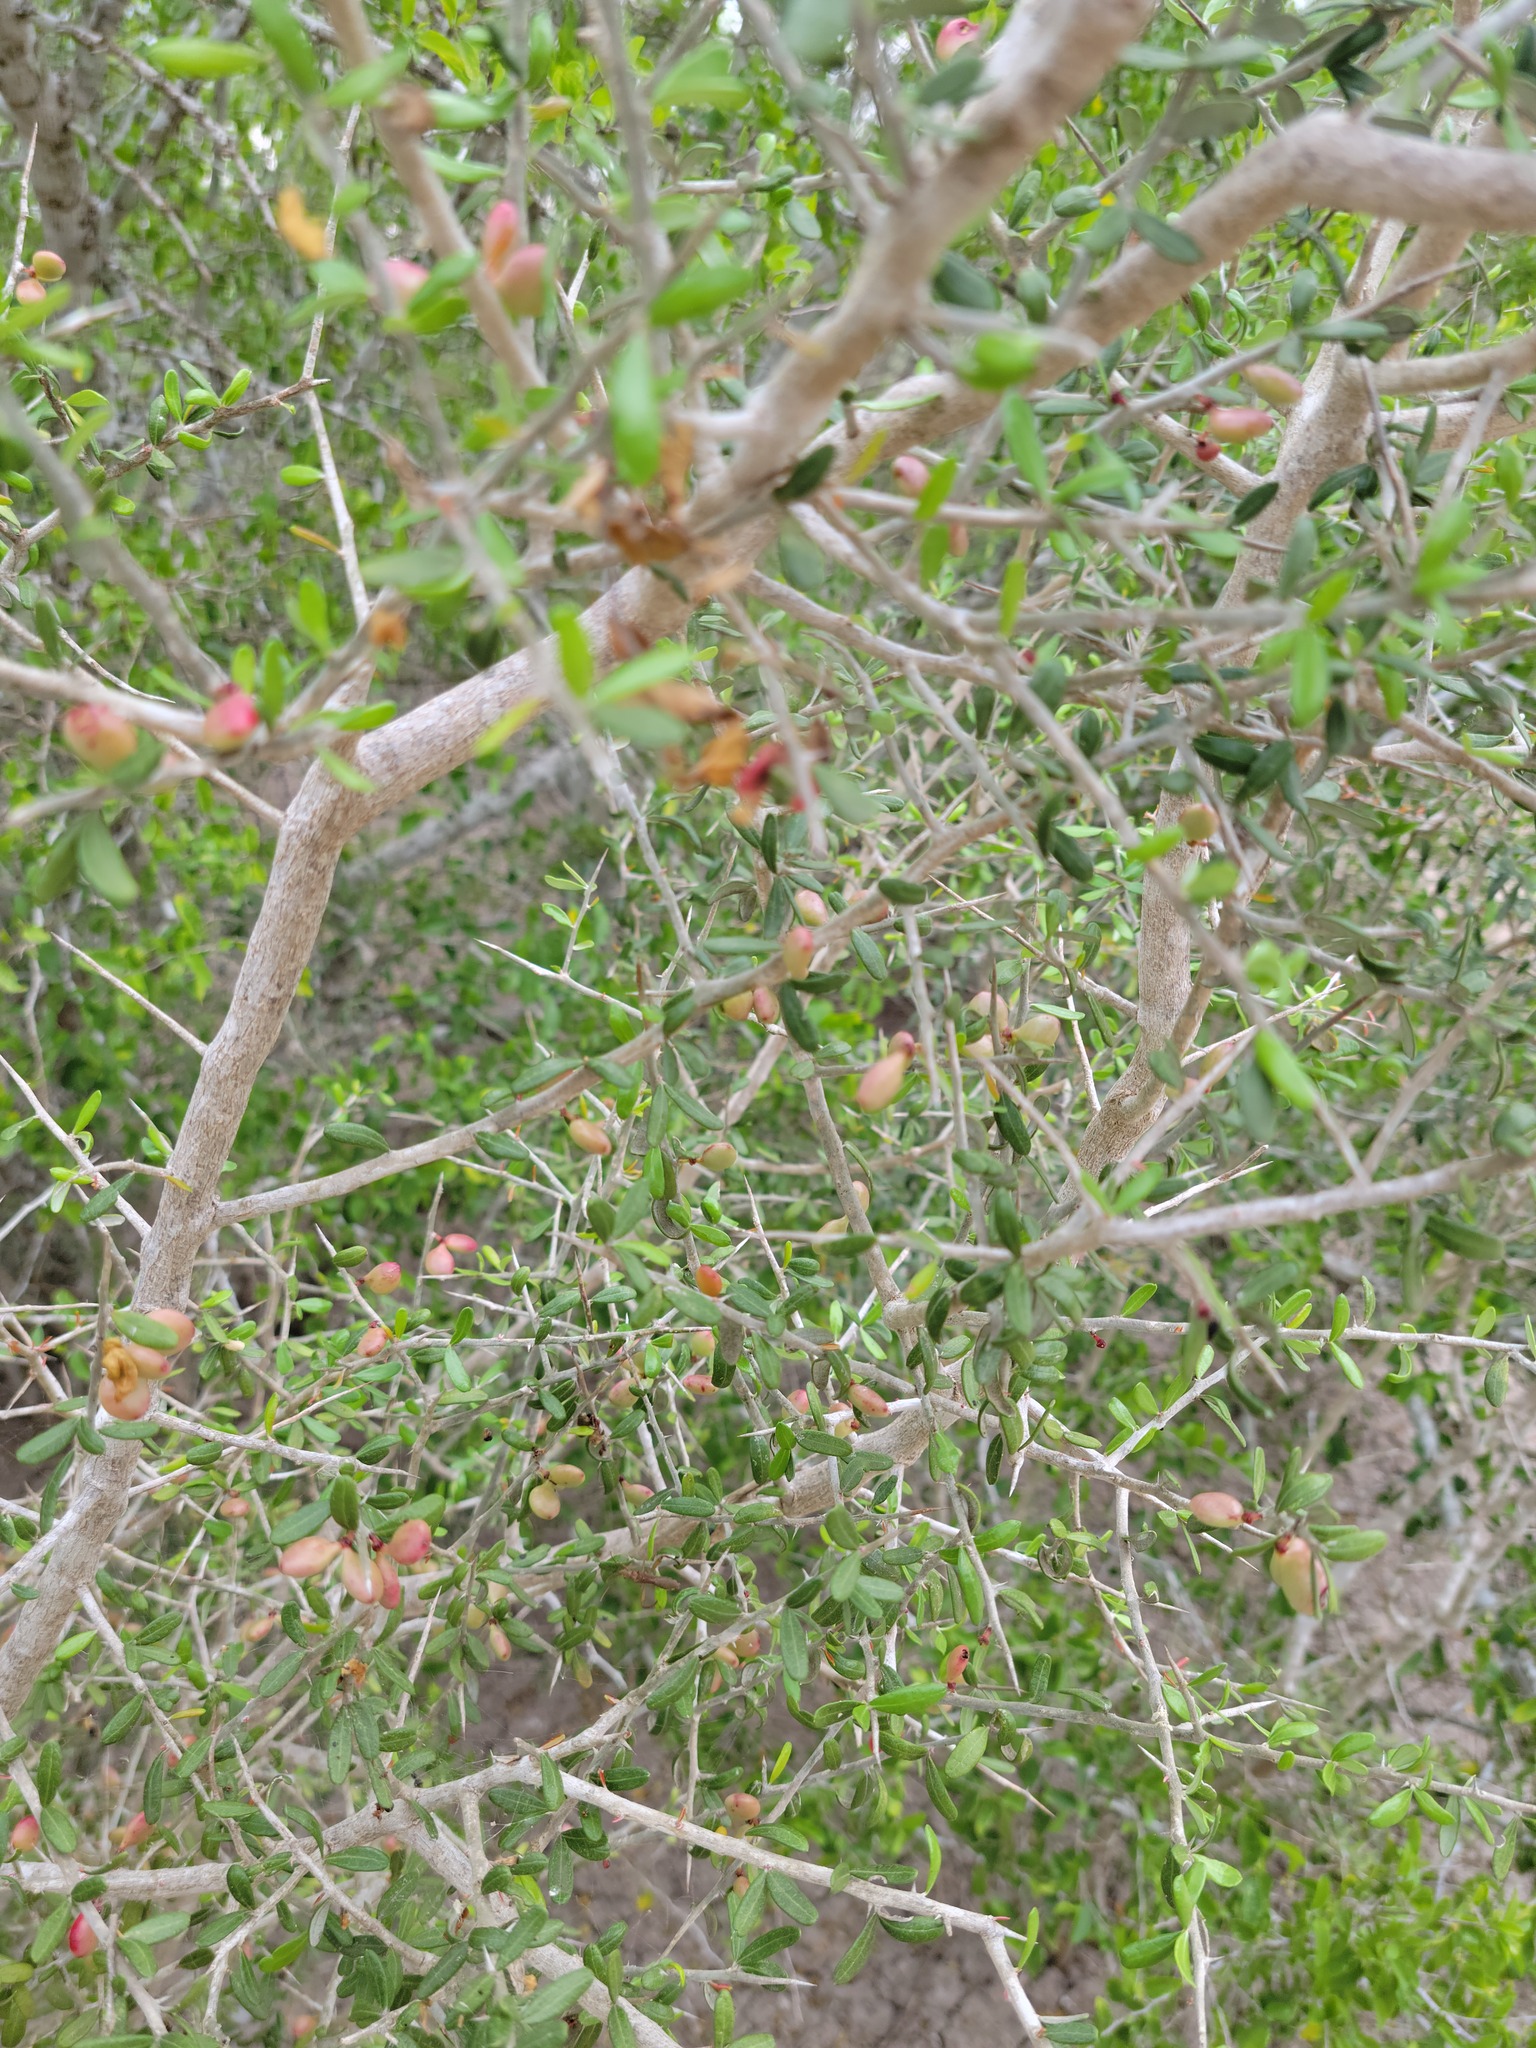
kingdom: Plantae
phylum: Tracheophyta
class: Magnoliopsida
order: Sapindales
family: Simaroubaceae
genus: Castela
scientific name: Castela erecta
